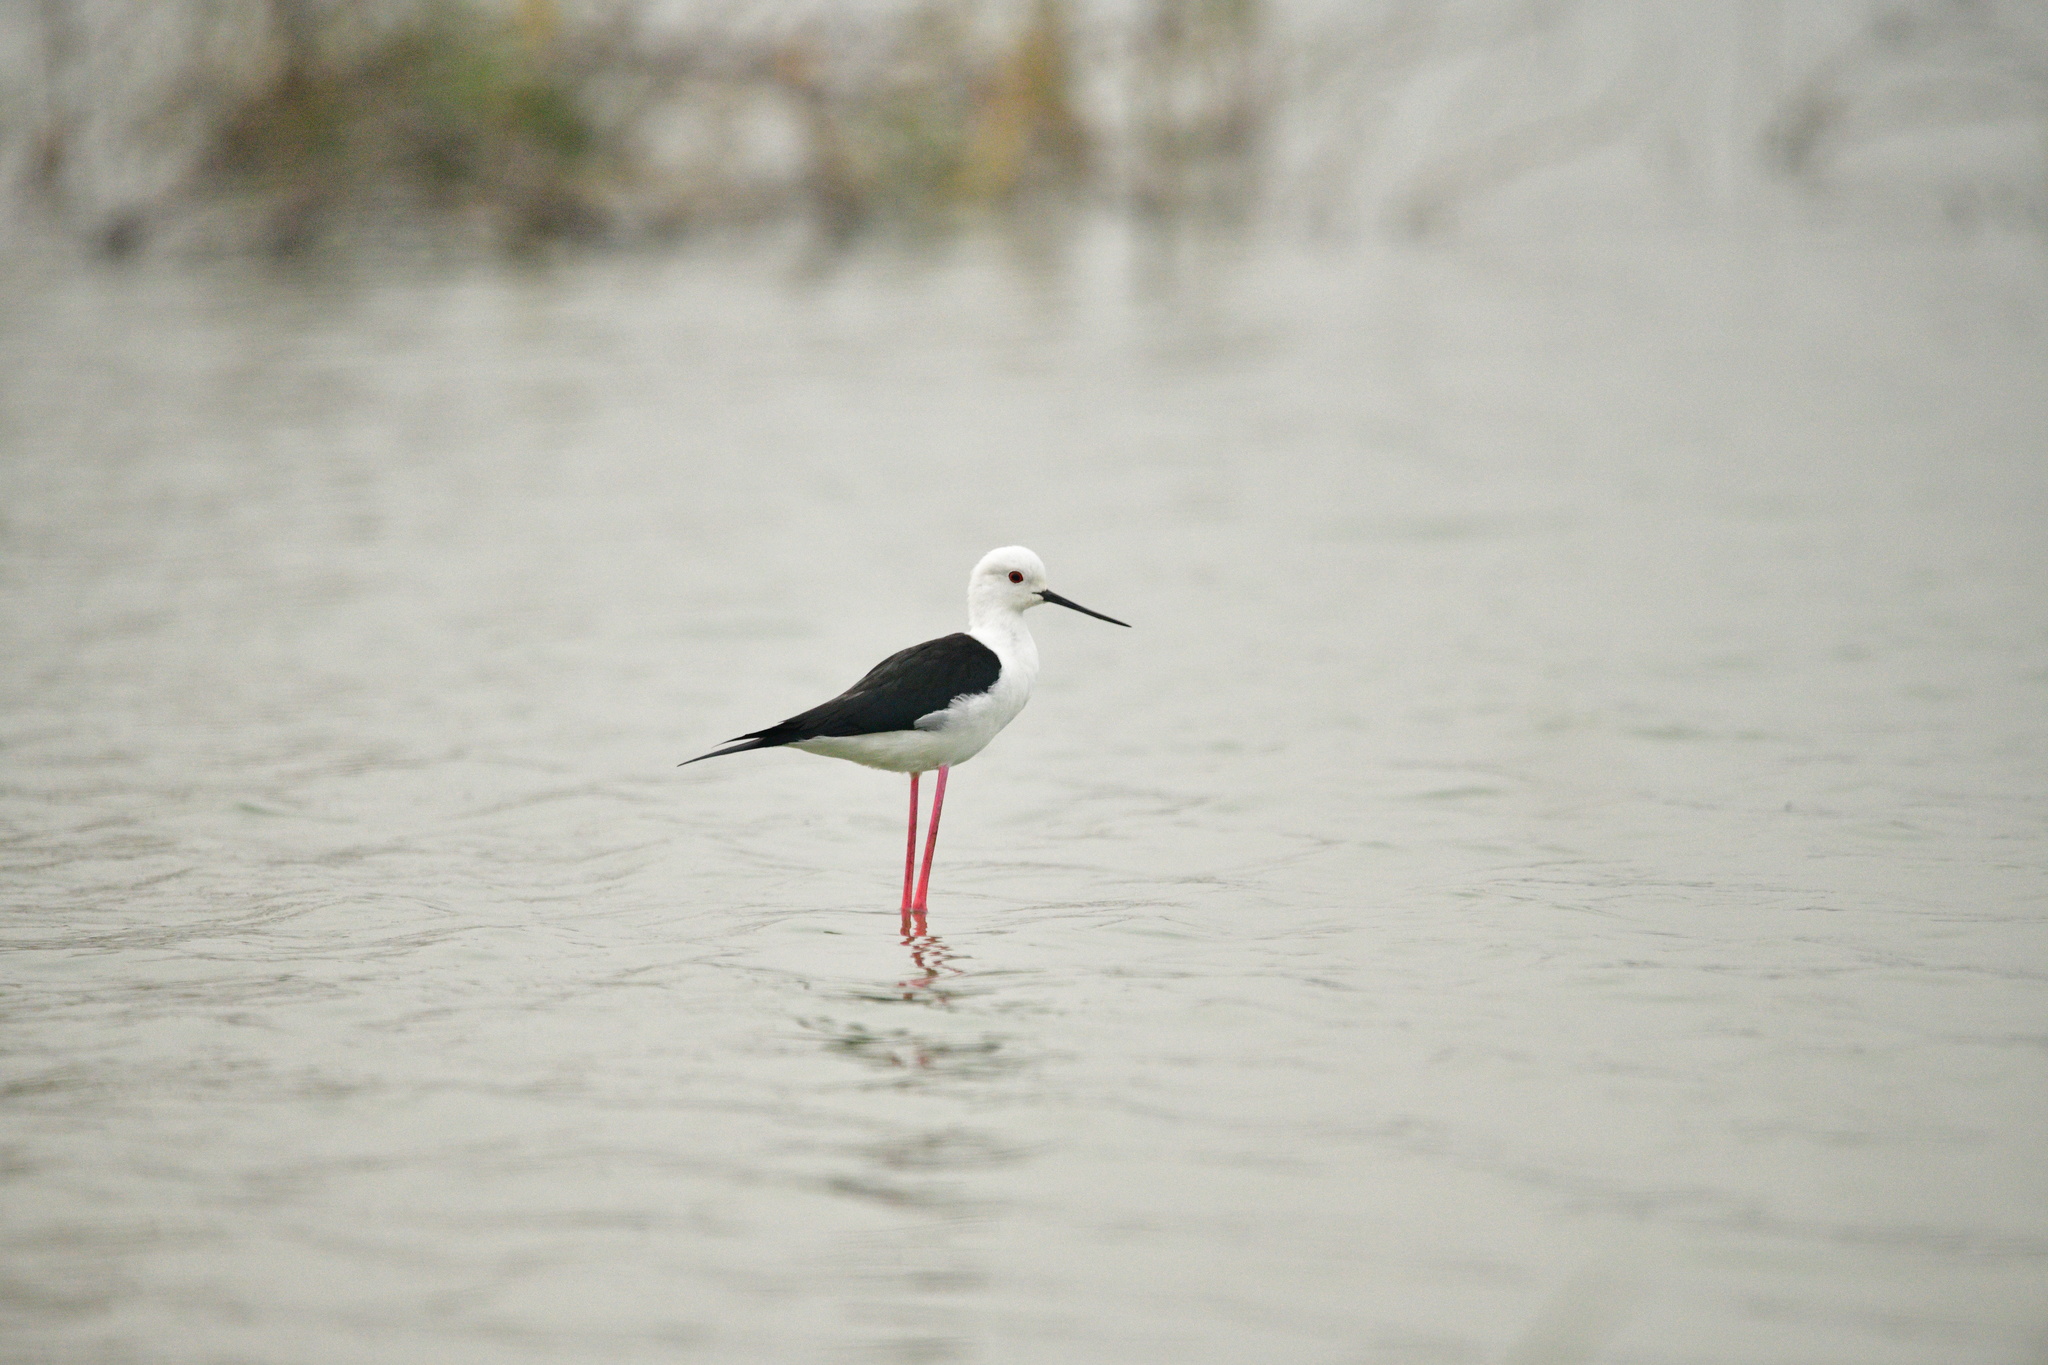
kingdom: Animalia
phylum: Chordata
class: Aves
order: Charadriiformes
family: Recurvirostridae
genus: Himantopus
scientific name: Himantopus himantopus
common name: Black-winged stilt
